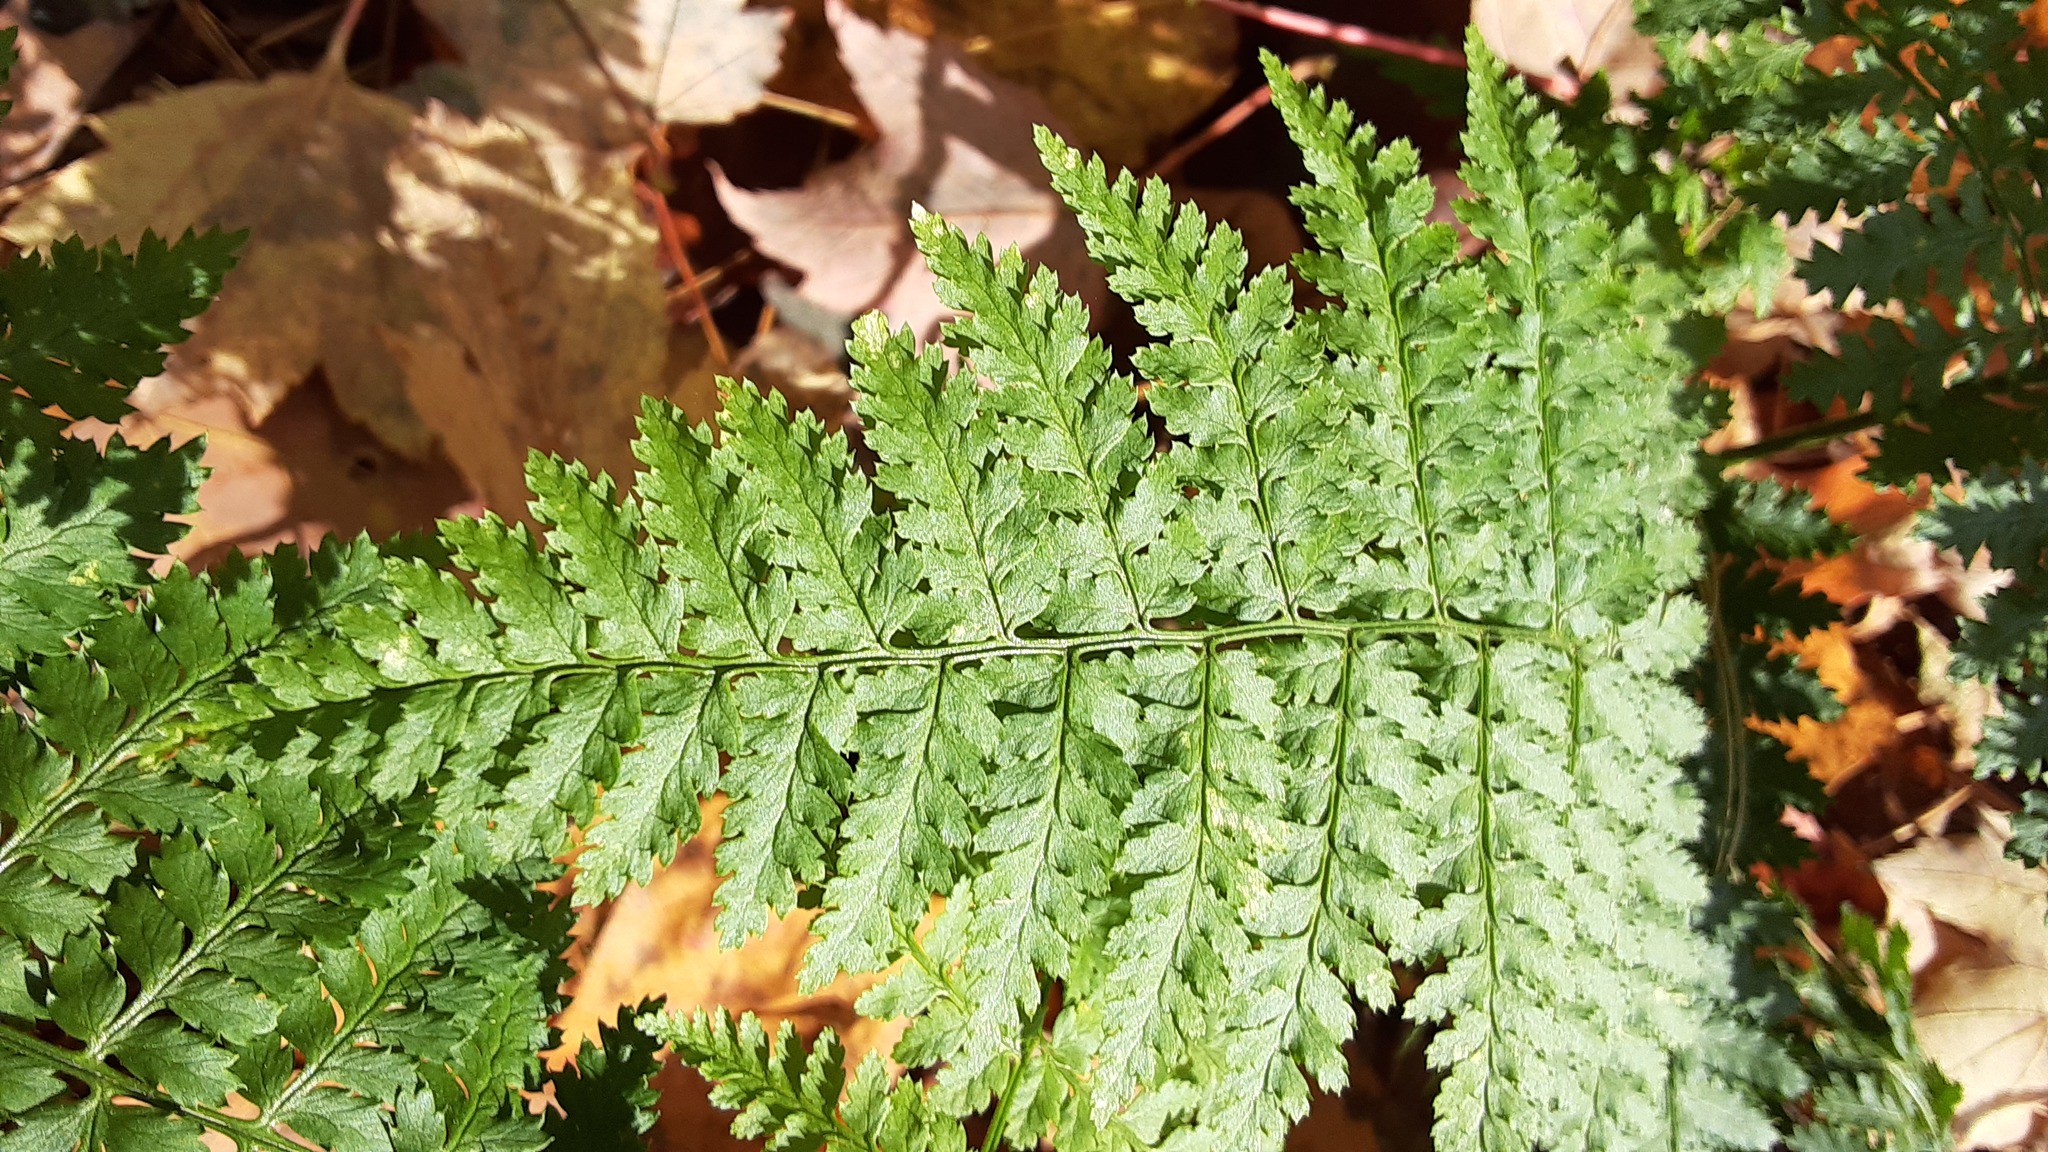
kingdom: Plantae
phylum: Tracheophyta
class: Polypodiopsida
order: Polypodiales
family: Dryopteridaceae
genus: Dryopteris
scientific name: Dryopteris intermedia
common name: Evergreen wood fern
